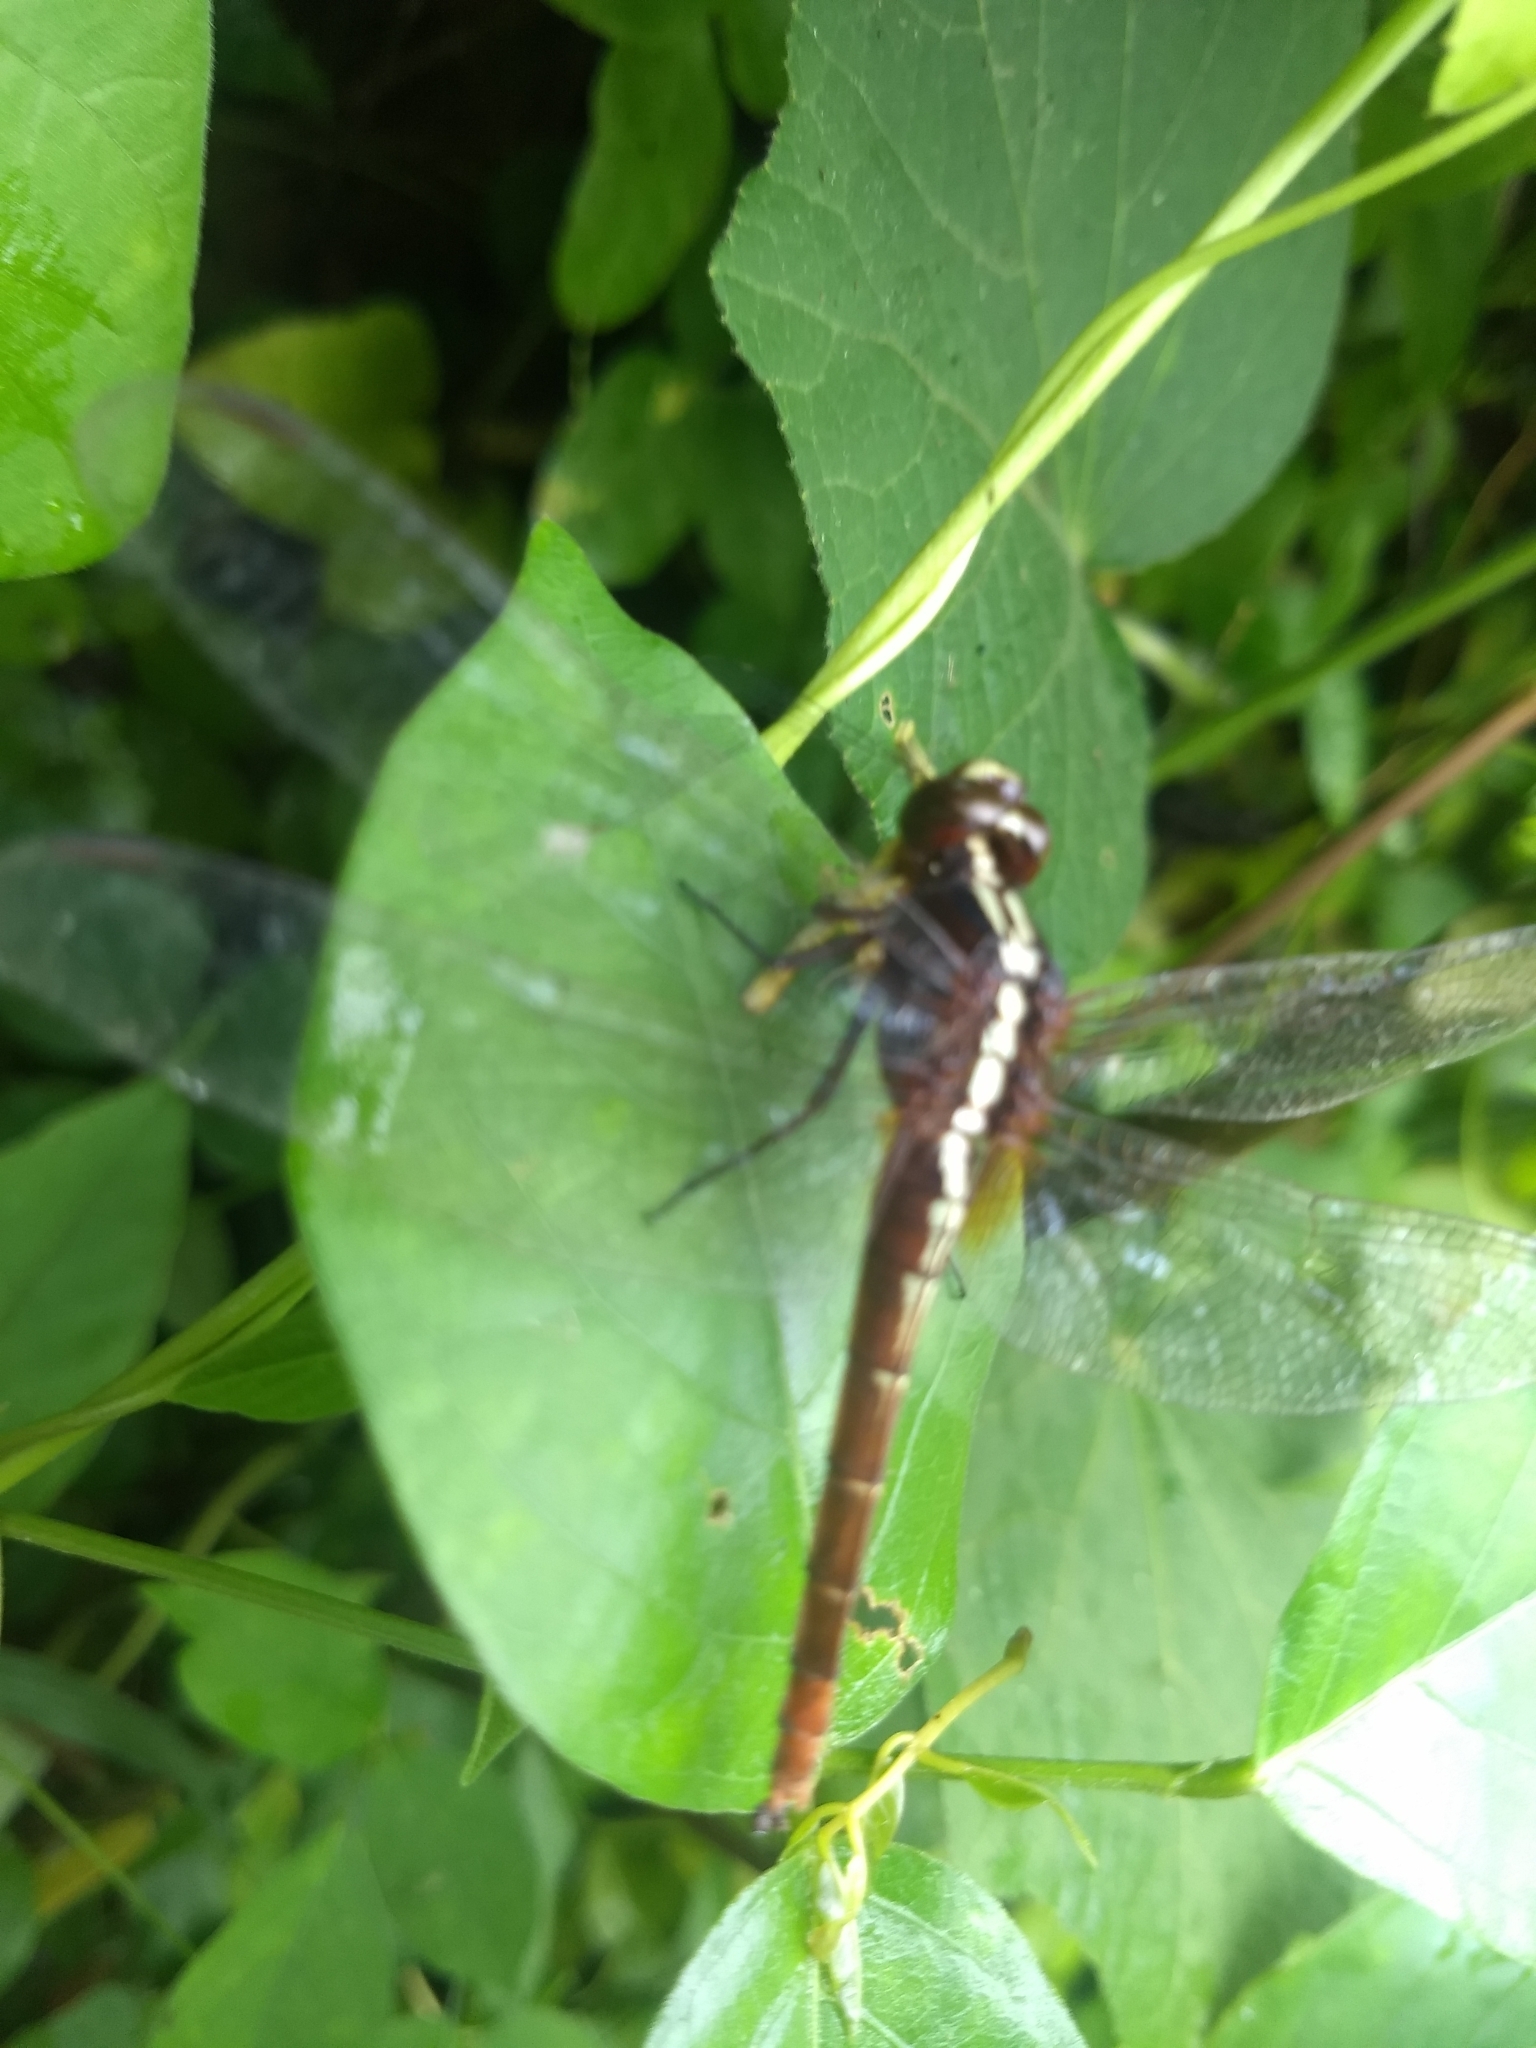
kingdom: Animalia
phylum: Arthropoda
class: Insecta
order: Odonata
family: Libellulidae
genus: Rhodothemis
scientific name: Rhodothemis rufa
